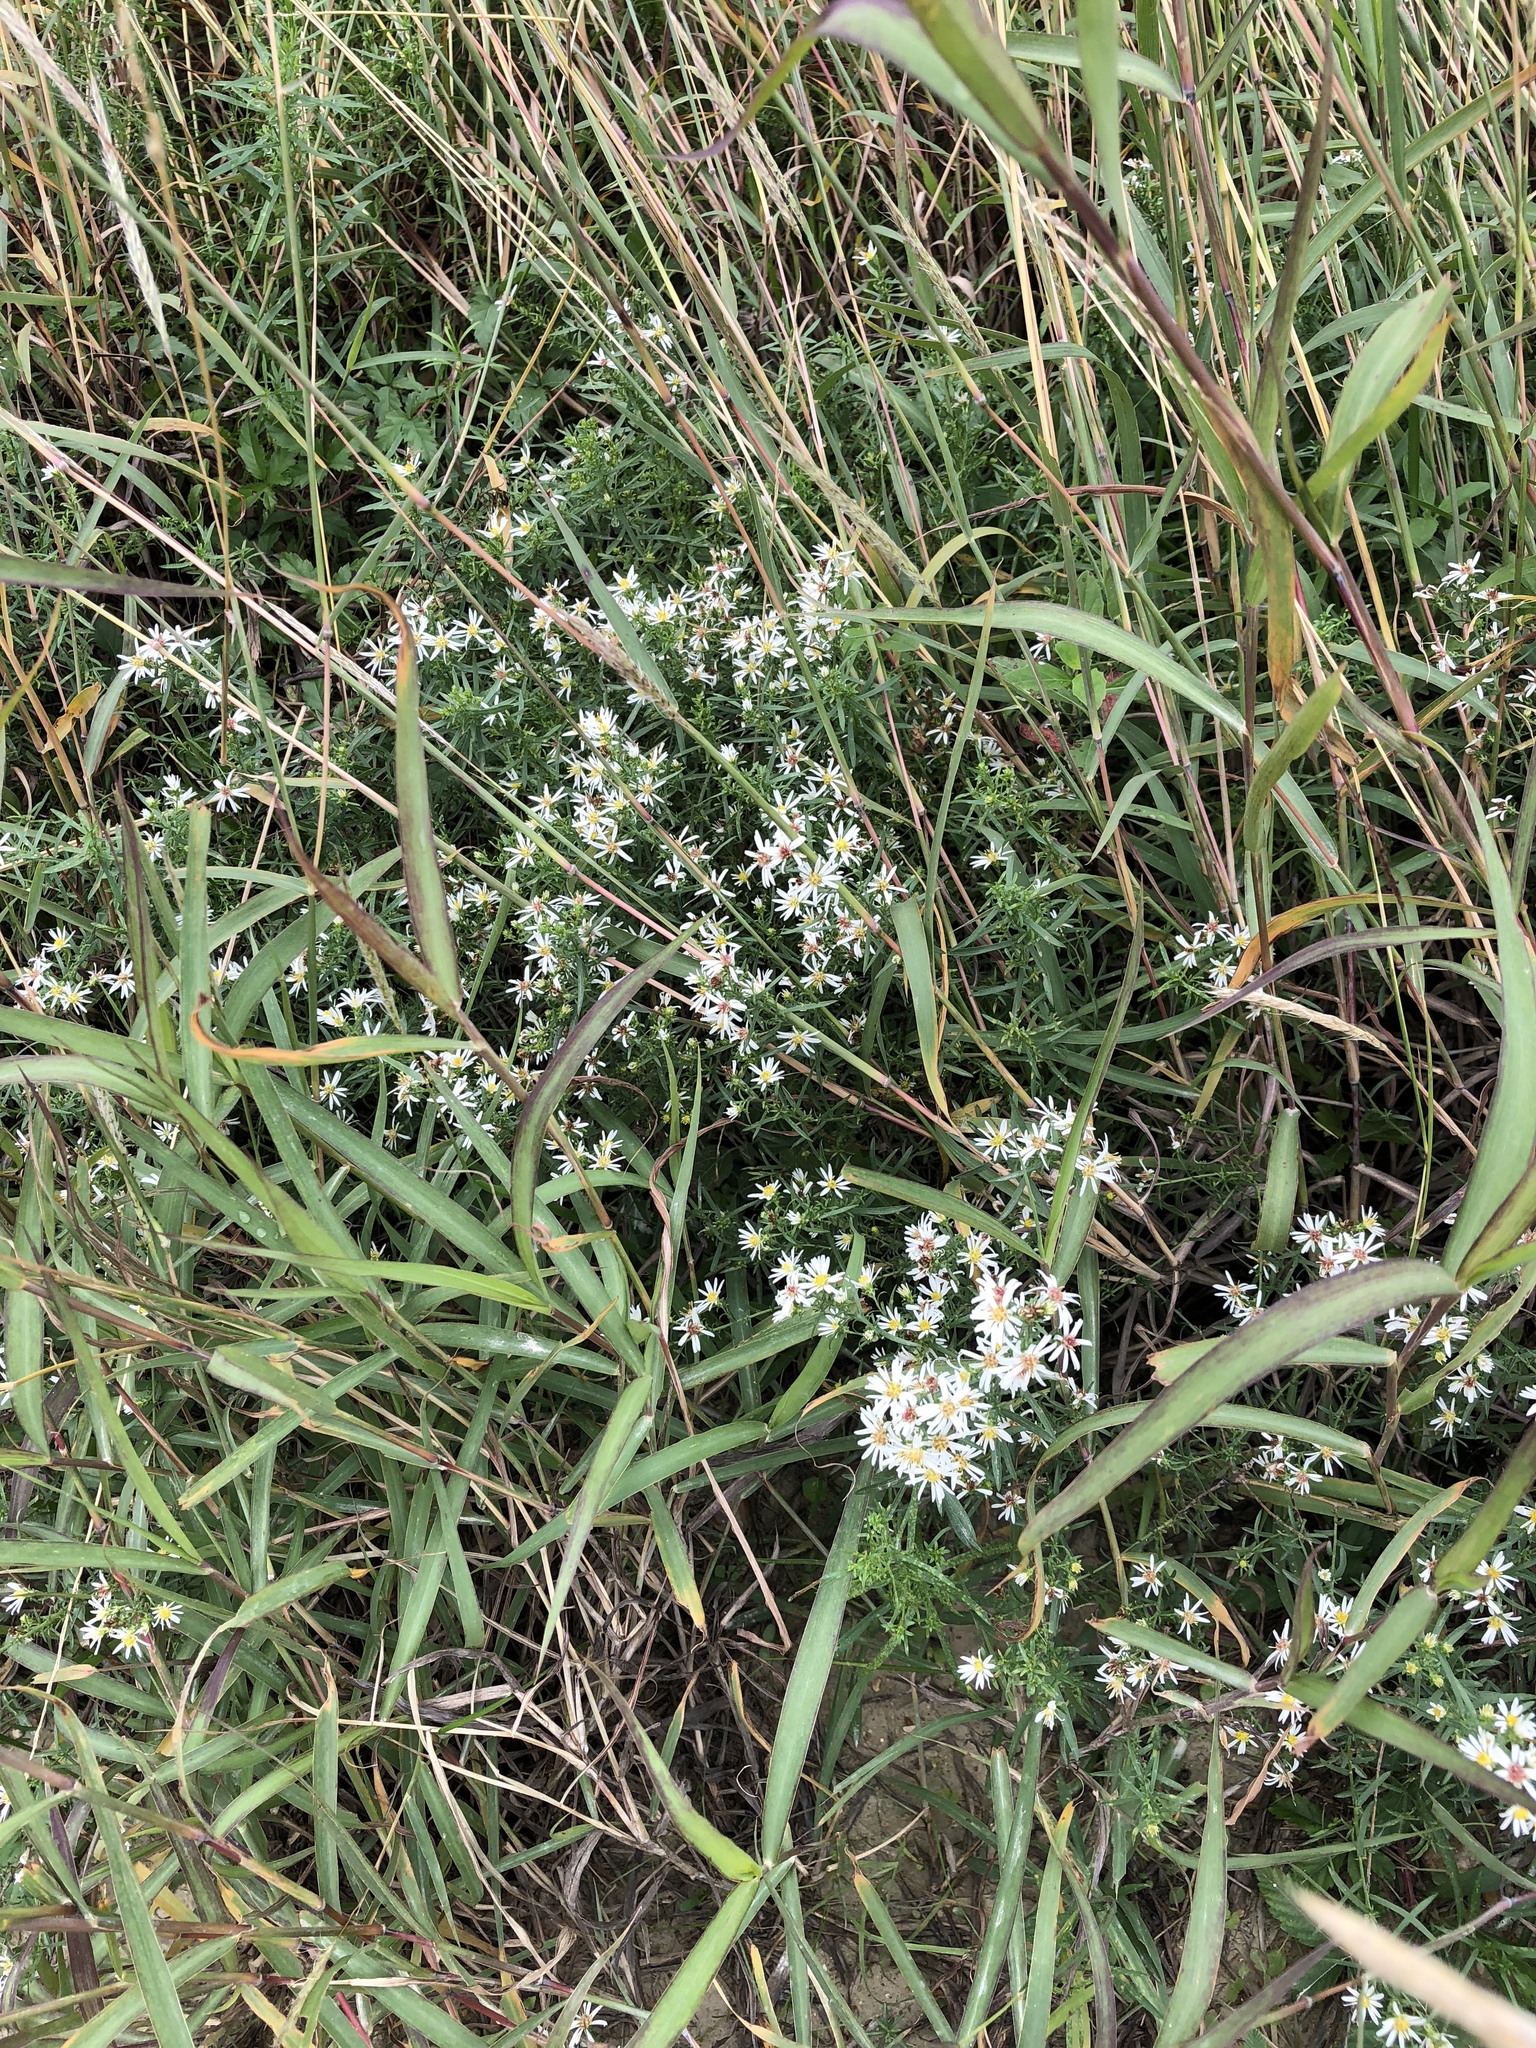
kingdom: Plantae
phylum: Tracheophyta
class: Magnoliopsida
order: Asterales
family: Asteraceae
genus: Symphyotrichum
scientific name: Symphyotrichum ericoides
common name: Heath aster
